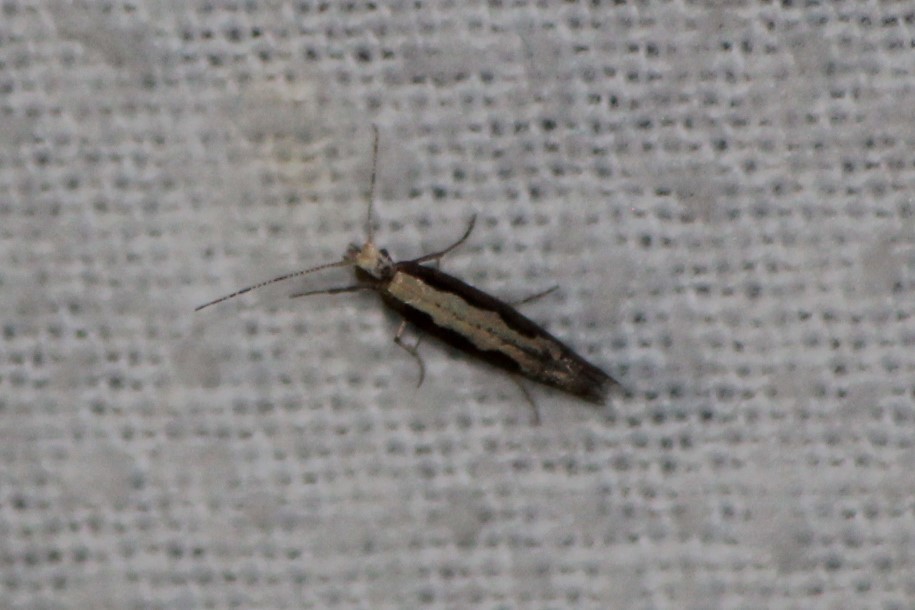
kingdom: Animalia
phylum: Arthropoda
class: Insecta
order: Lepidoptera
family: Plutellidae
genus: Plutella
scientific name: Plutella xylostella
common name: Diamond-back moth
